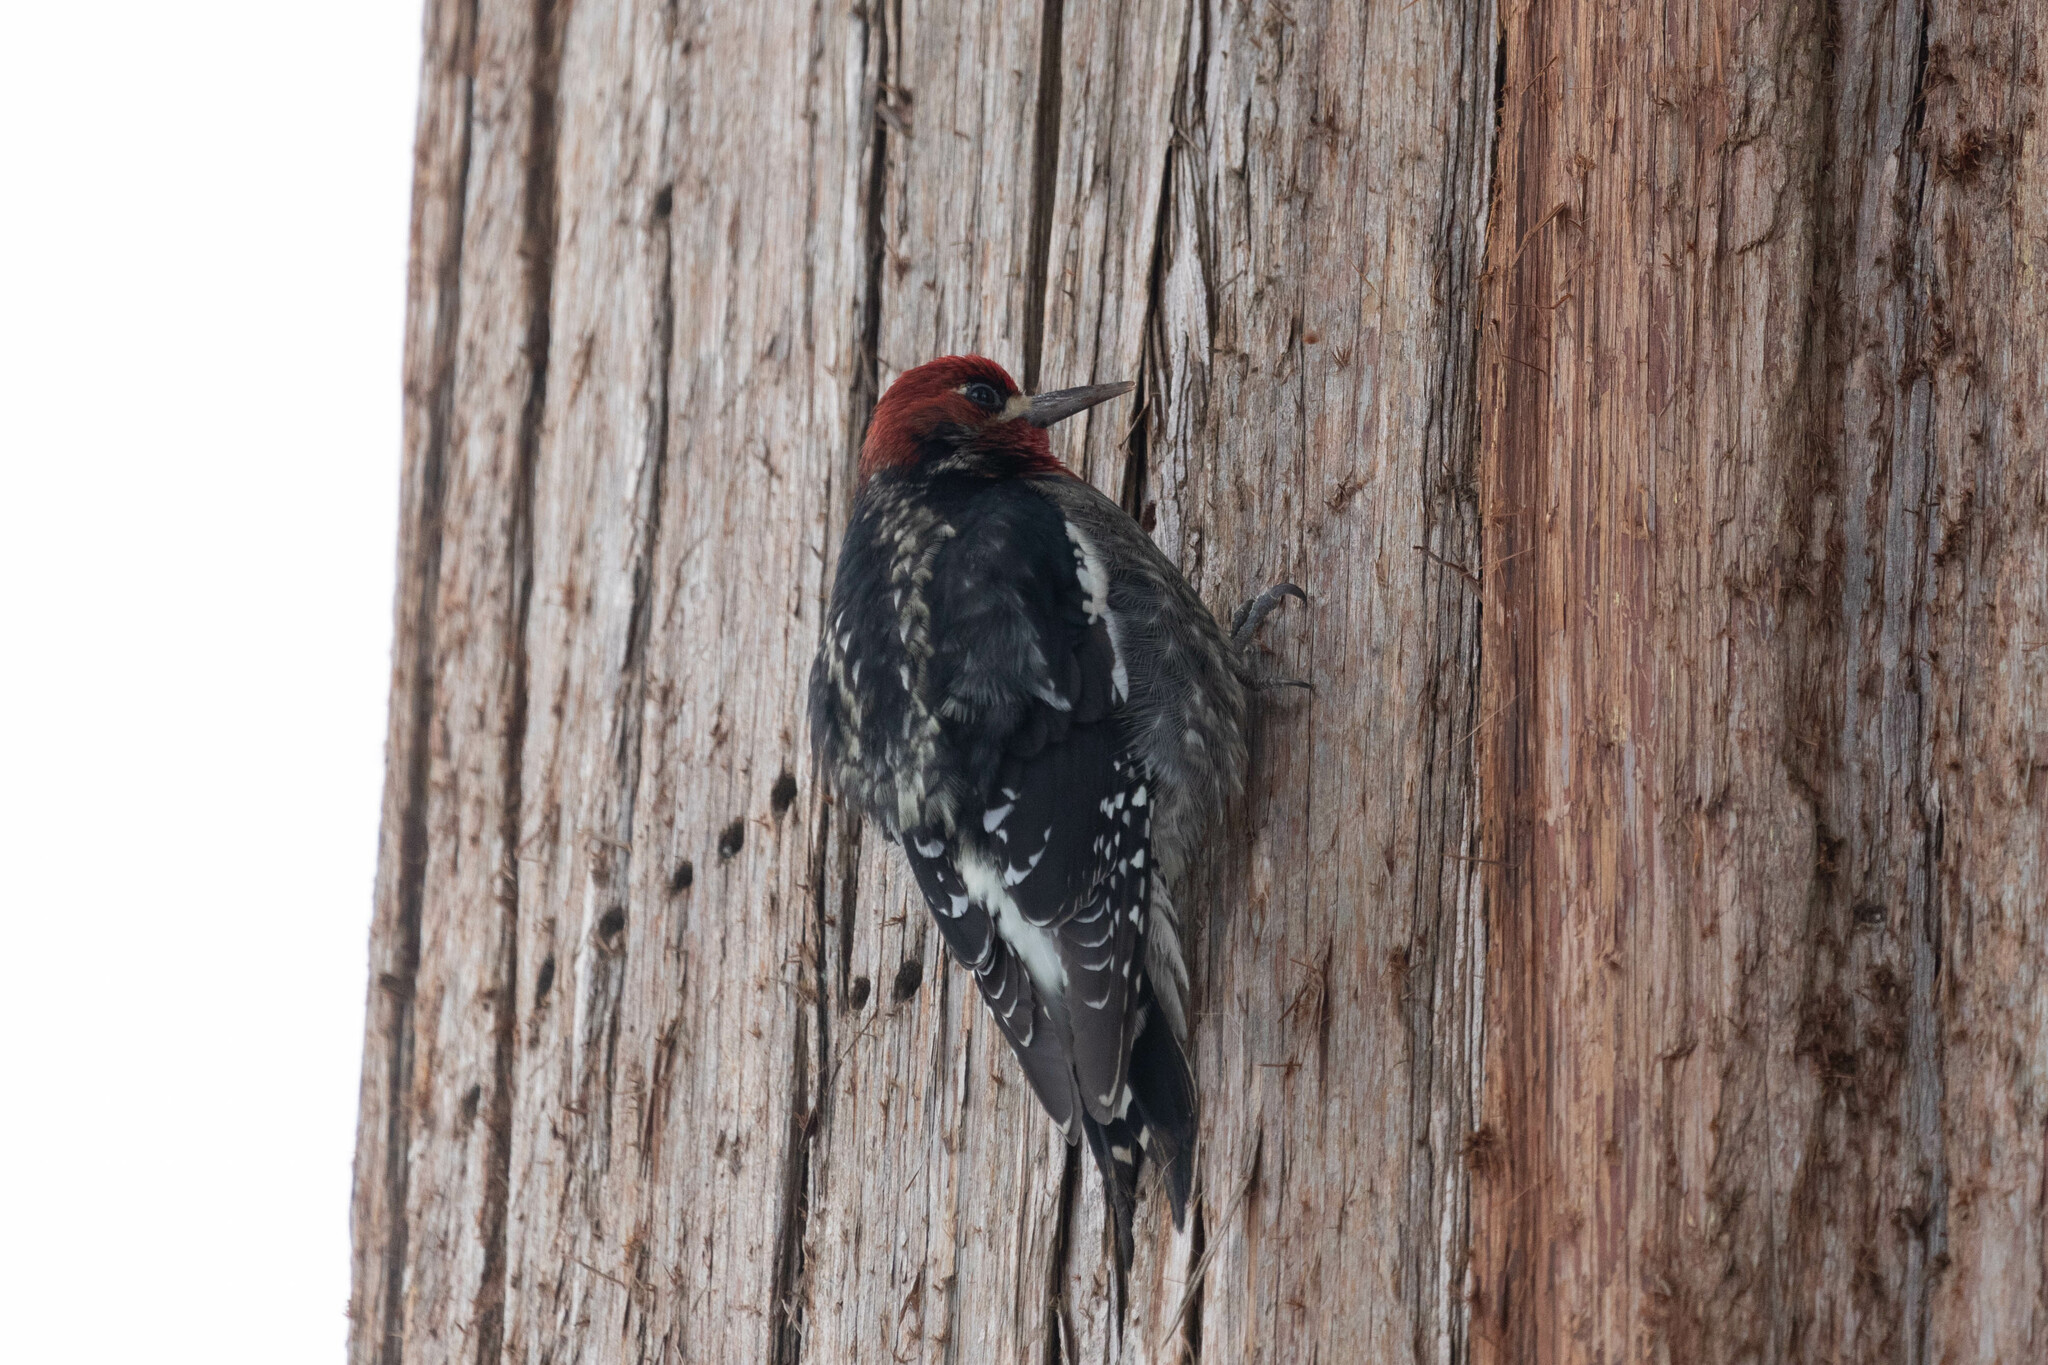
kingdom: Animalia
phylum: Chordata
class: Aves
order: Piciformes
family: Picidae
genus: Sphyrapicus
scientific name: Sphyrapicus ruber
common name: Red-breasted sapsucker
